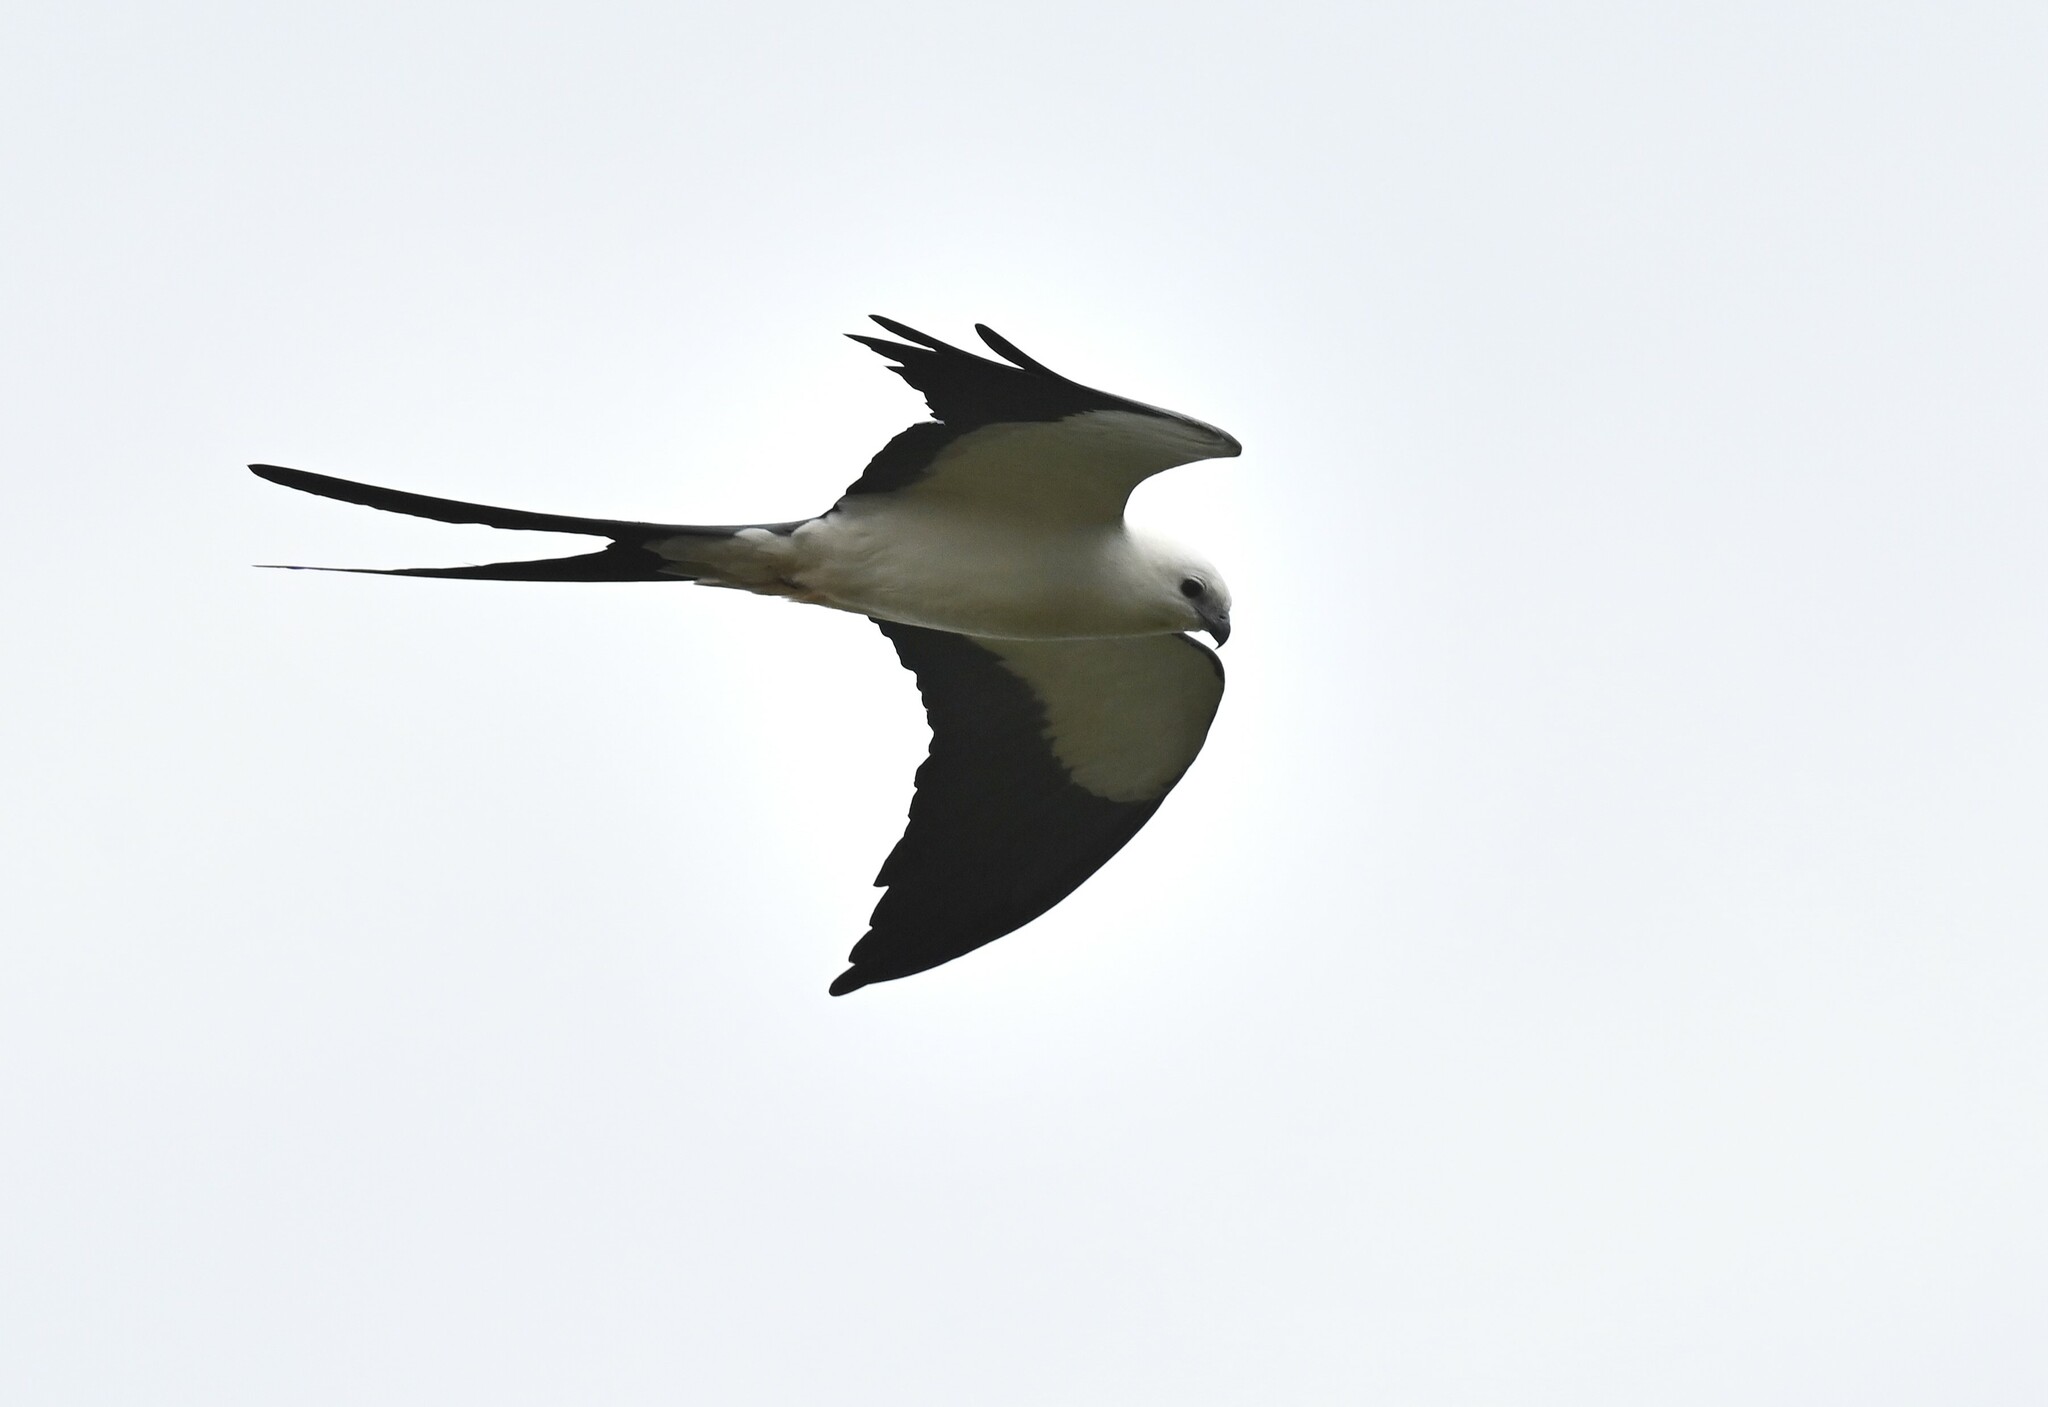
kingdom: Animalia
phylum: Chordata
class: Aves
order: Accipitriformes
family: Accipitridae
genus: Elanoides
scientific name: Elanoides forficatus
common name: Swallow-tailed kite
